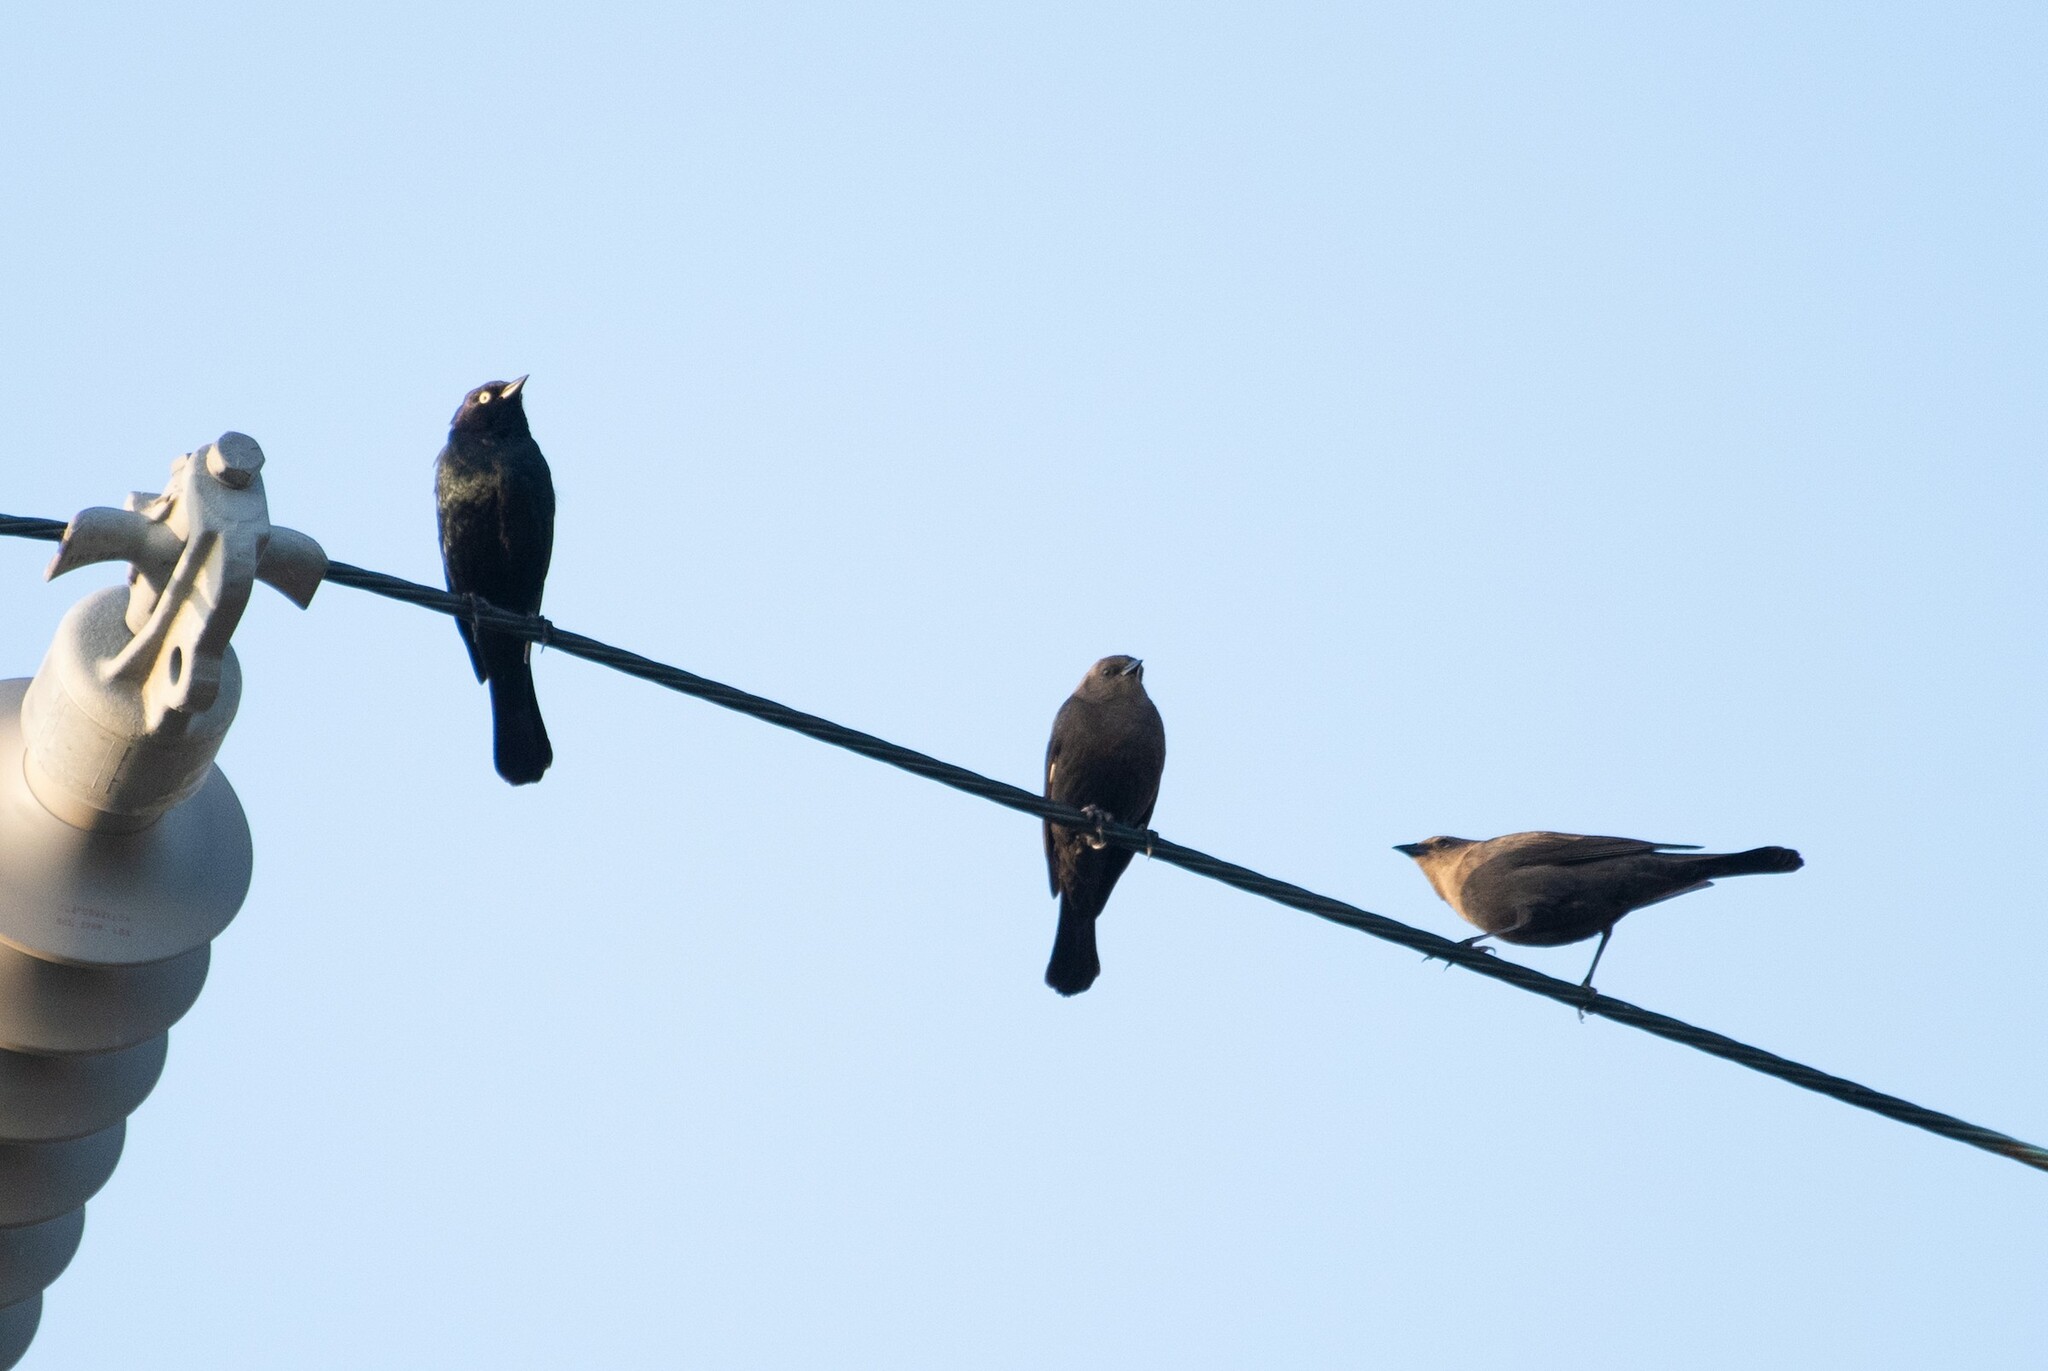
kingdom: Animalia
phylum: Chordata
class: Aves
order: Passeriformes
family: Icteridae
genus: Euphagus
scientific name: Euphagus cyanocephalus
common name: Brewer's blackbird
